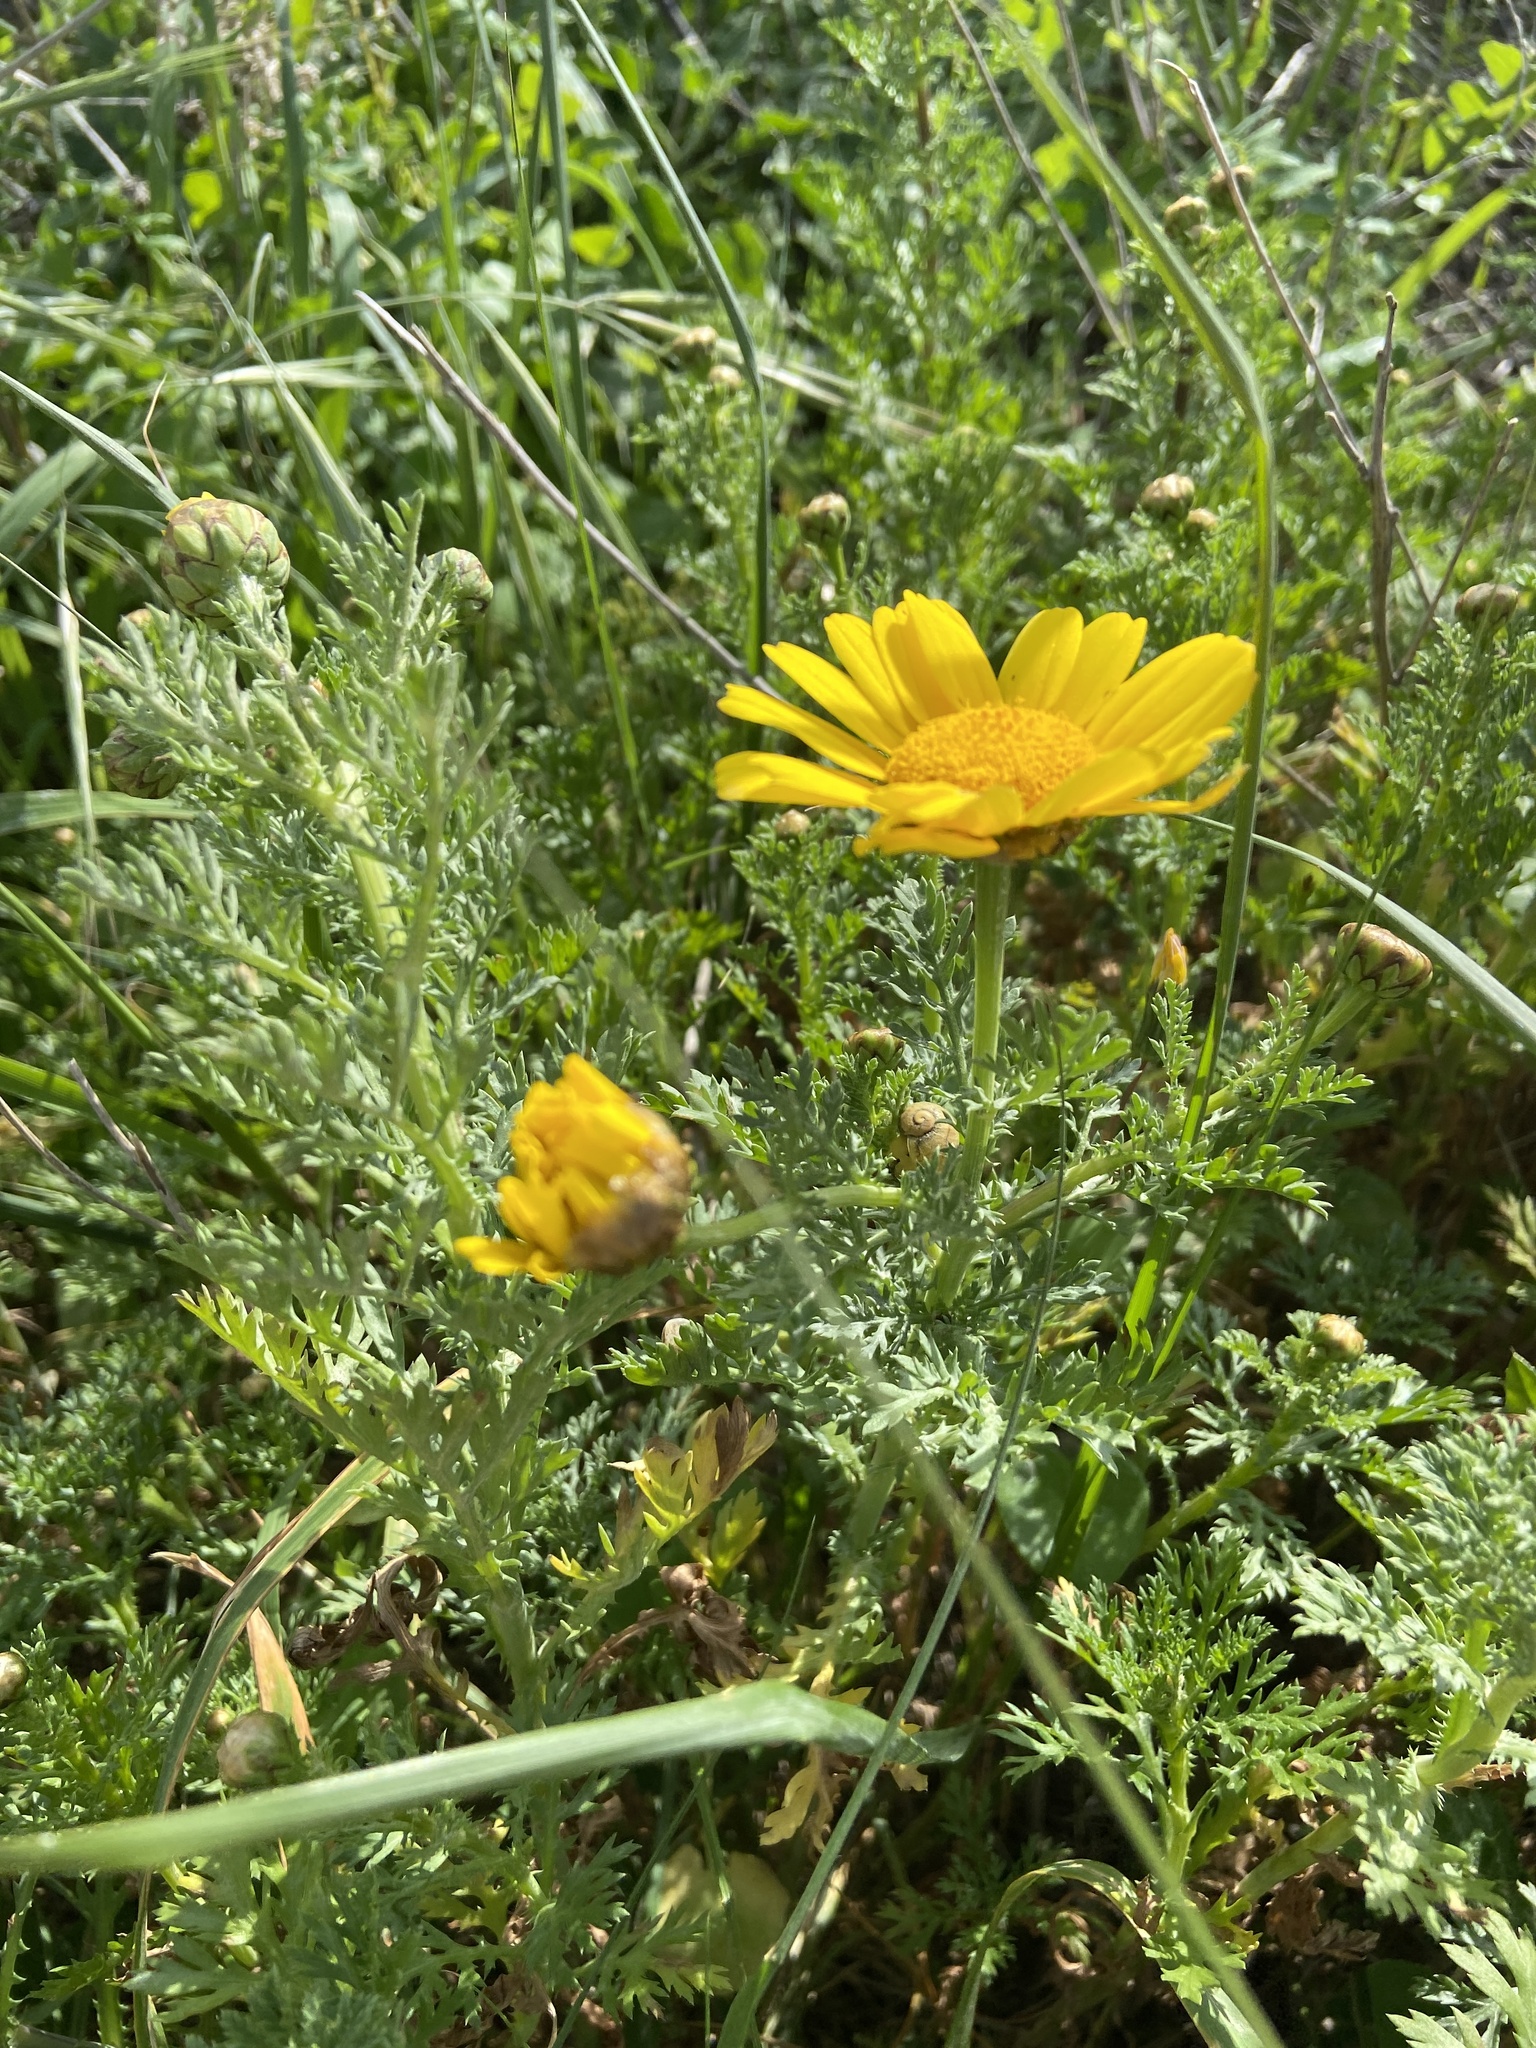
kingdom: Plantae
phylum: Tracheophyta
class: Magnoliopsida
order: Asterales
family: Asteraceae
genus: Glebionis
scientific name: Glebionis coronaria
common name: Crowndaisy
